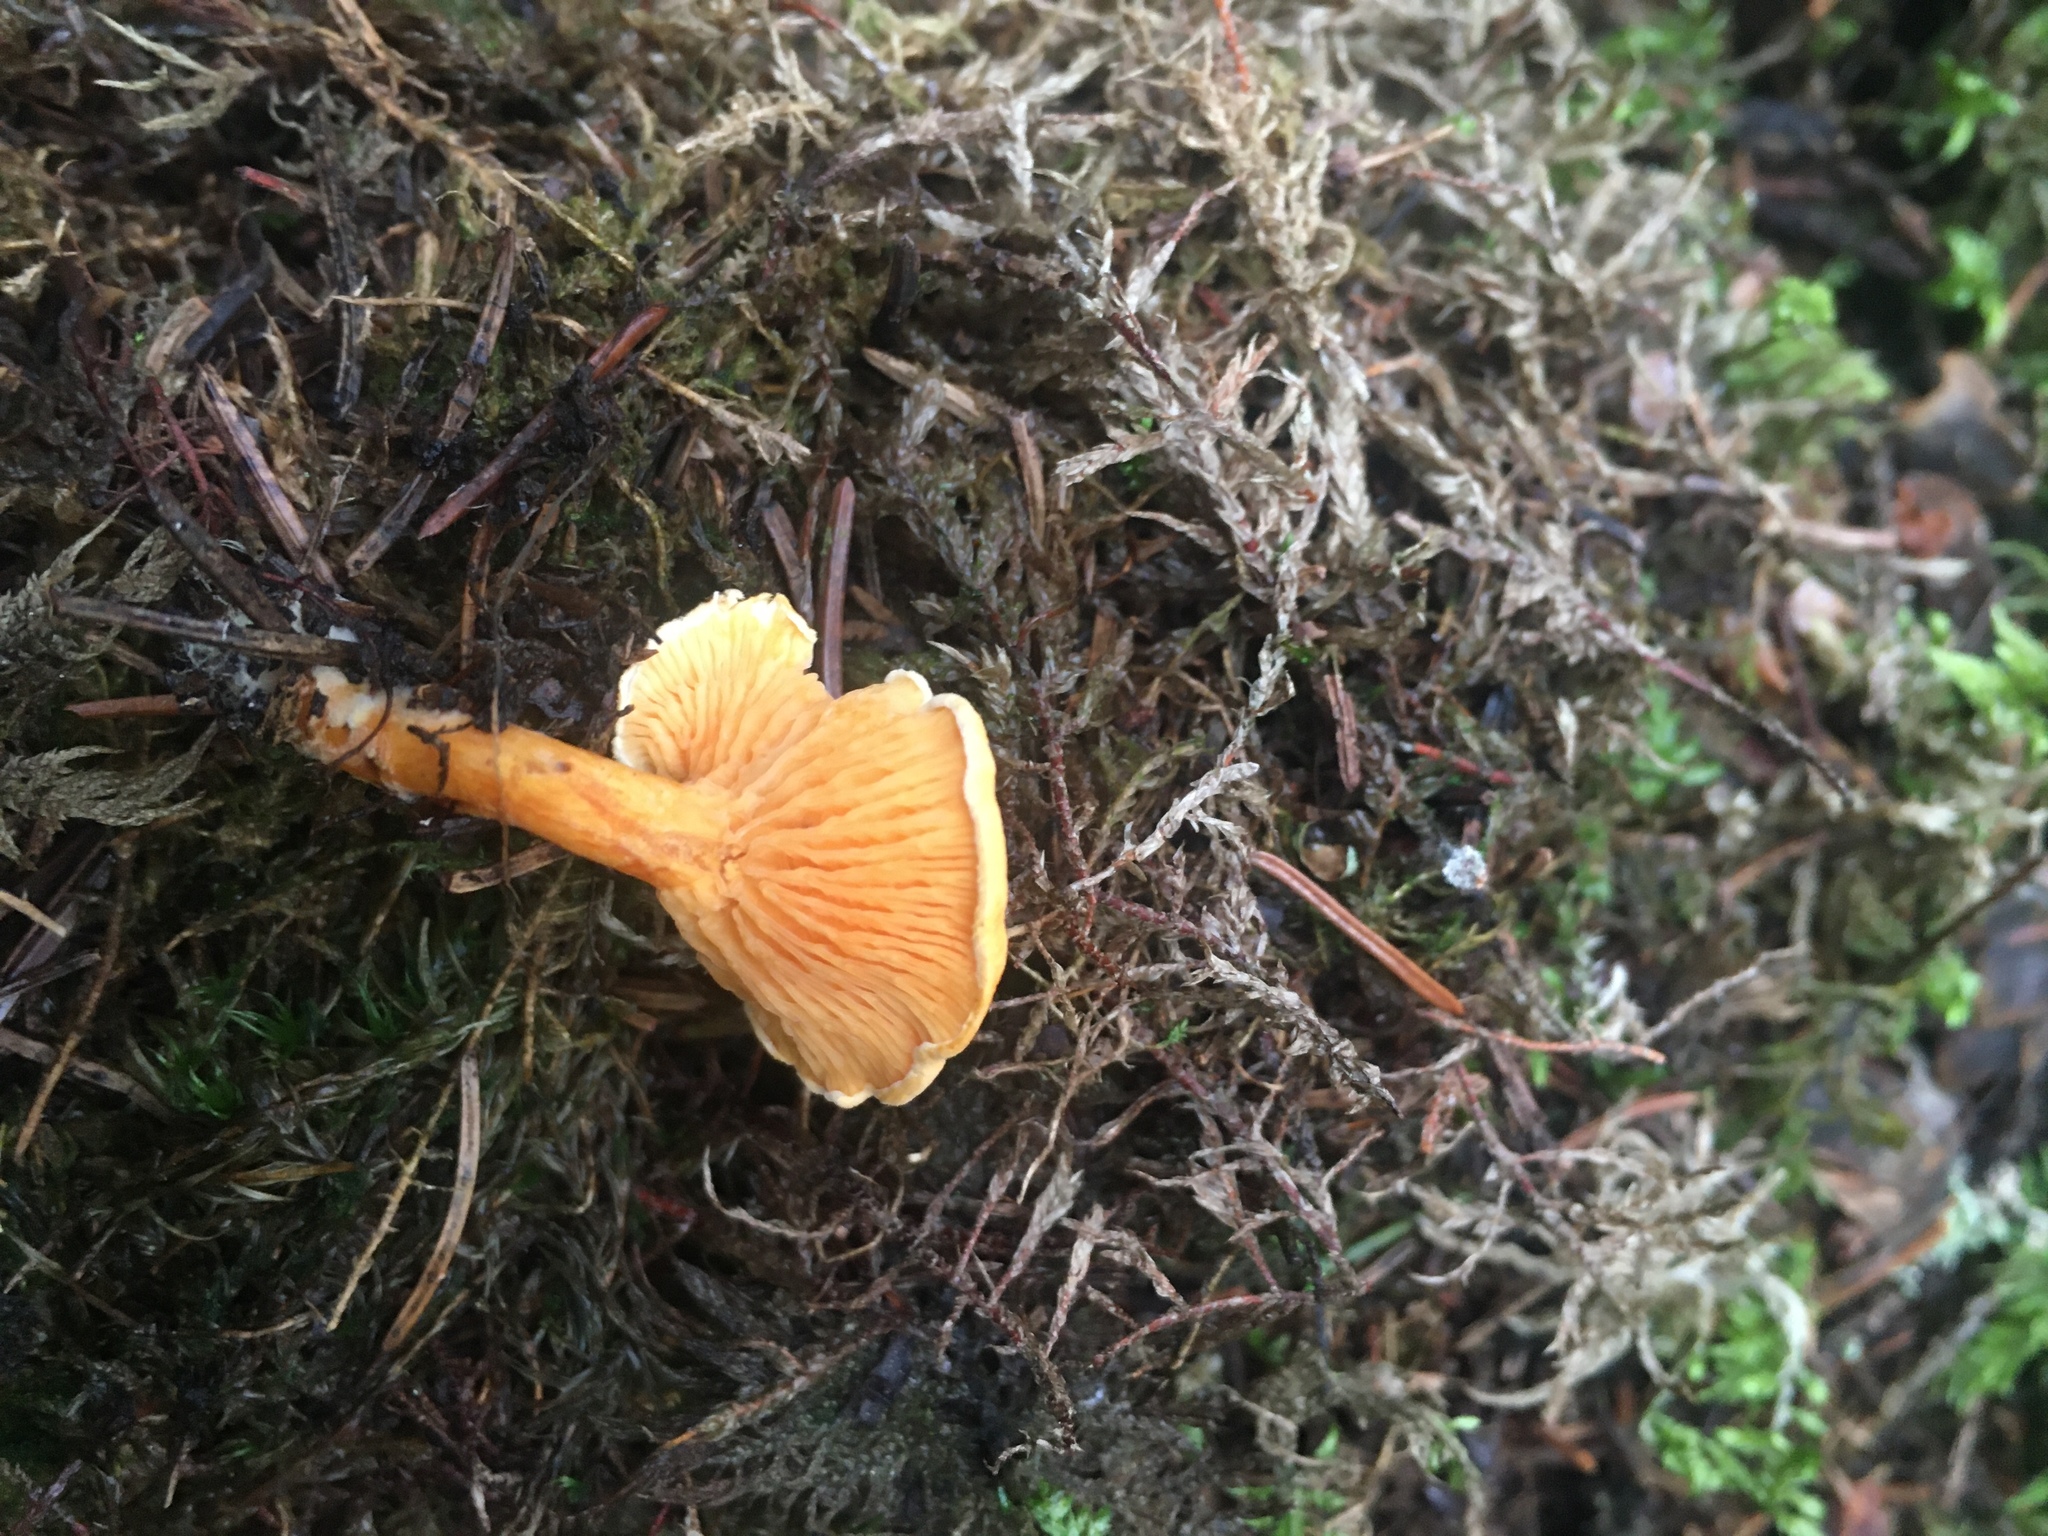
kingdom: Fungi
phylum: Basidiomycota
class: Agaricomycetes
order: Boletales
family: Hygrophoropsidaceae
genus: Hygrophoropsis
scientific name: Hygrophoropsis aurantiaca
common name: False chanterelle
